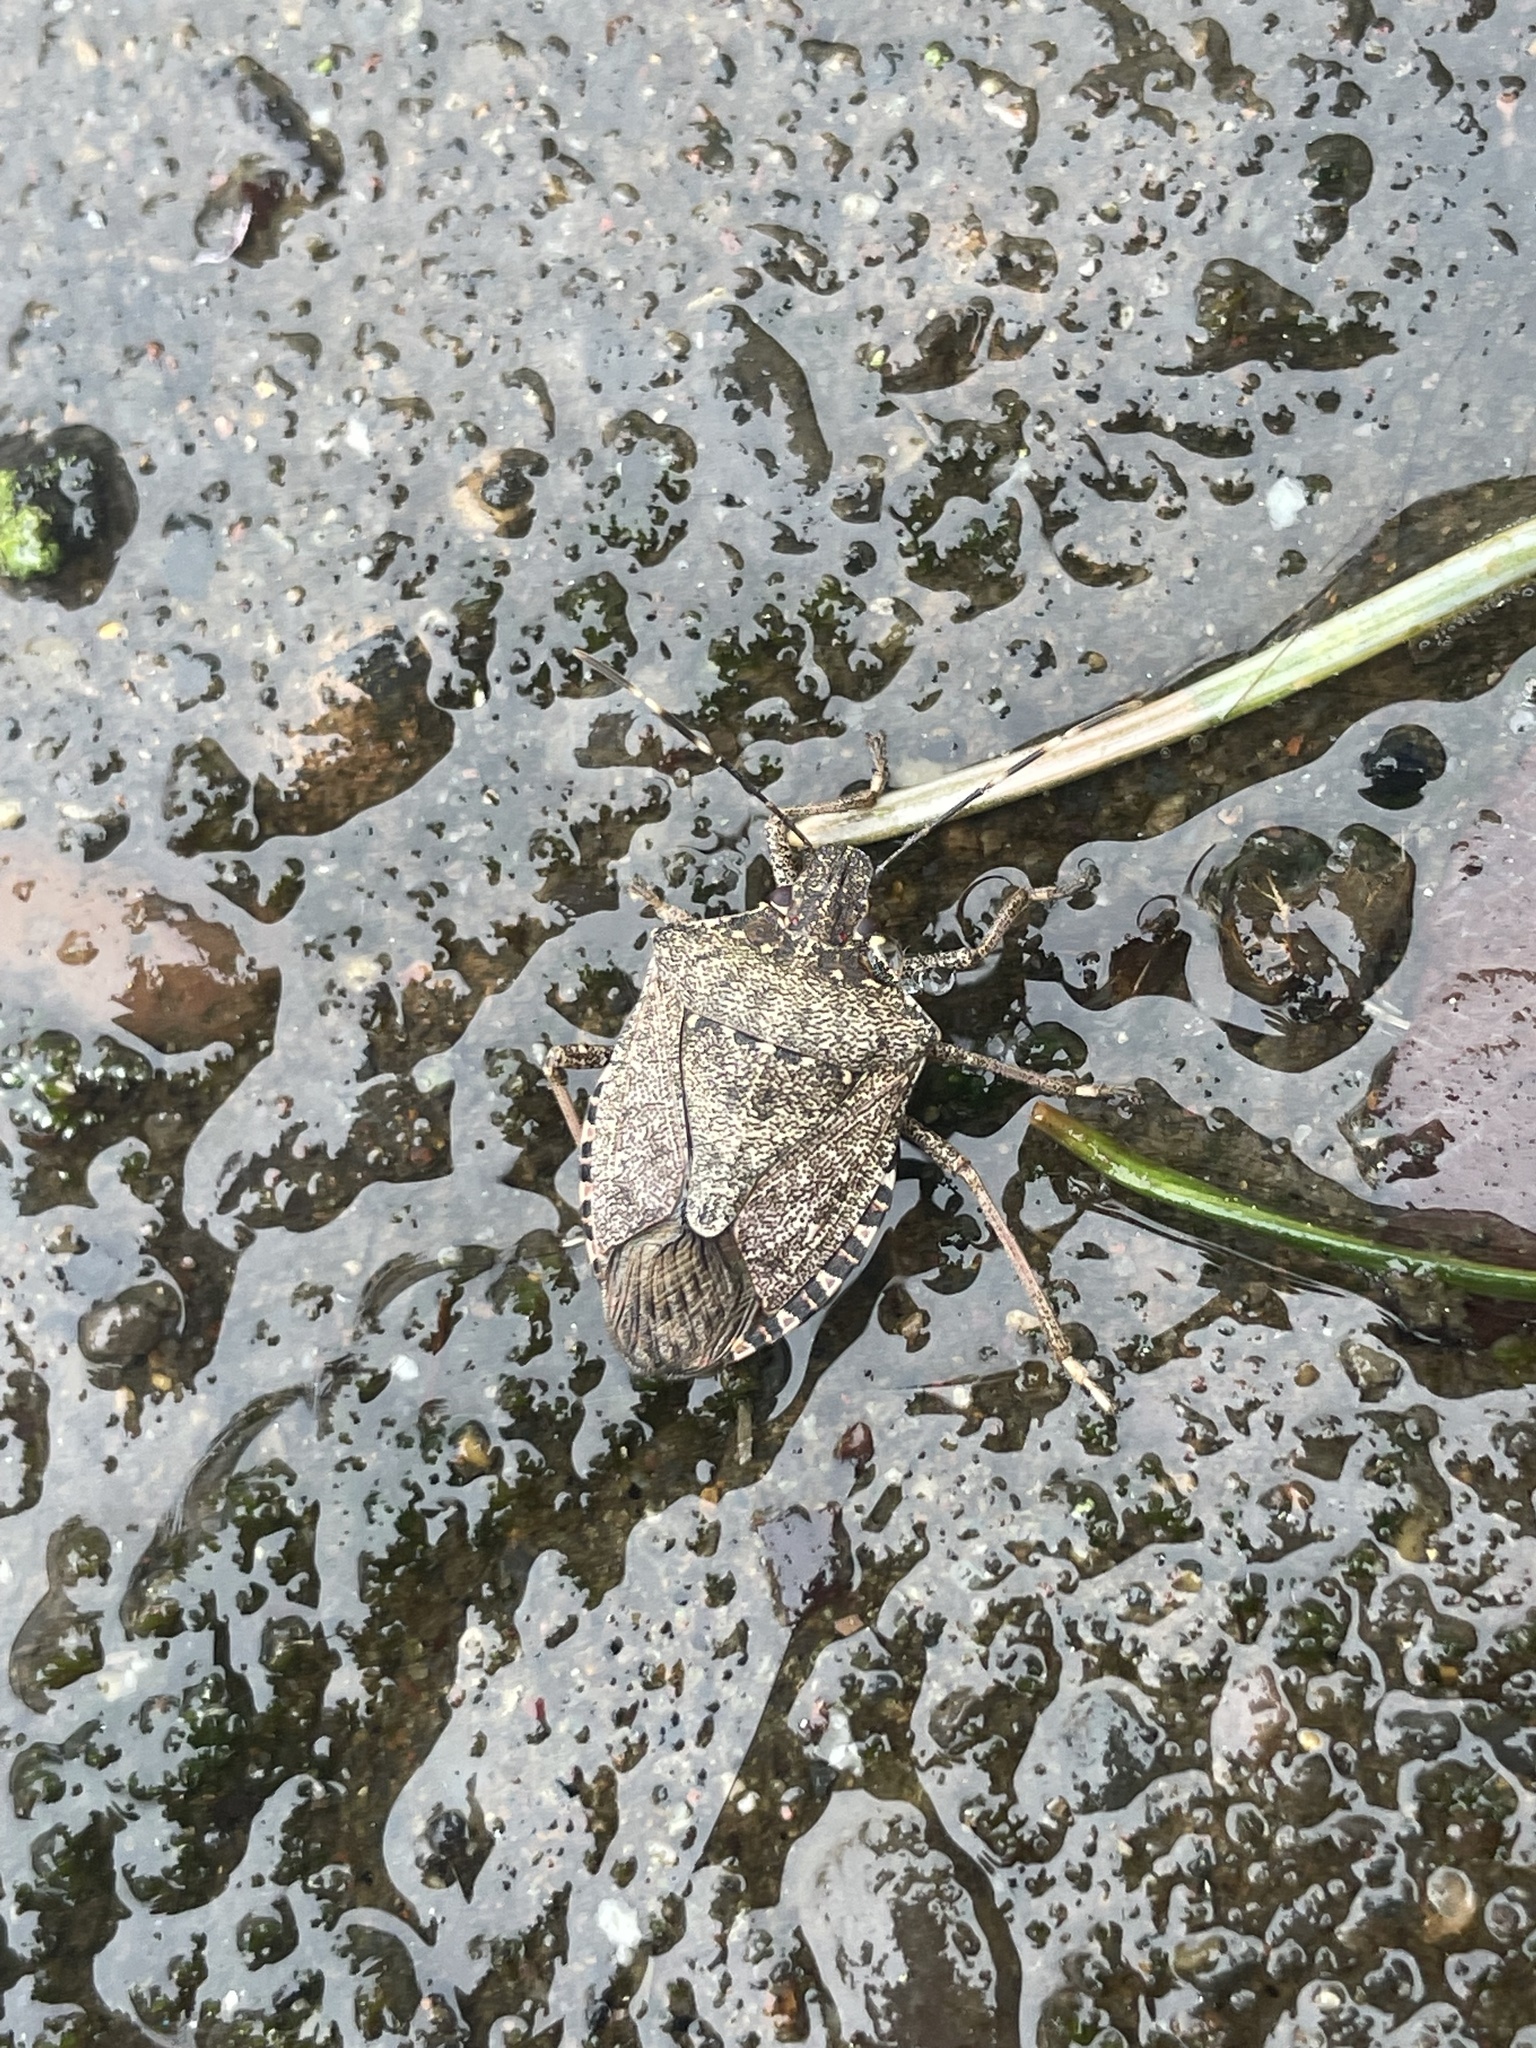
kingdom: Animalia
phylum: Arthropoda
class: Insecta
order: Hemiptera
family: Pentatomidae
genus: Halyomorpha
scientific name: Halyomorpha halys
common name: Brown marmorated stink bug
